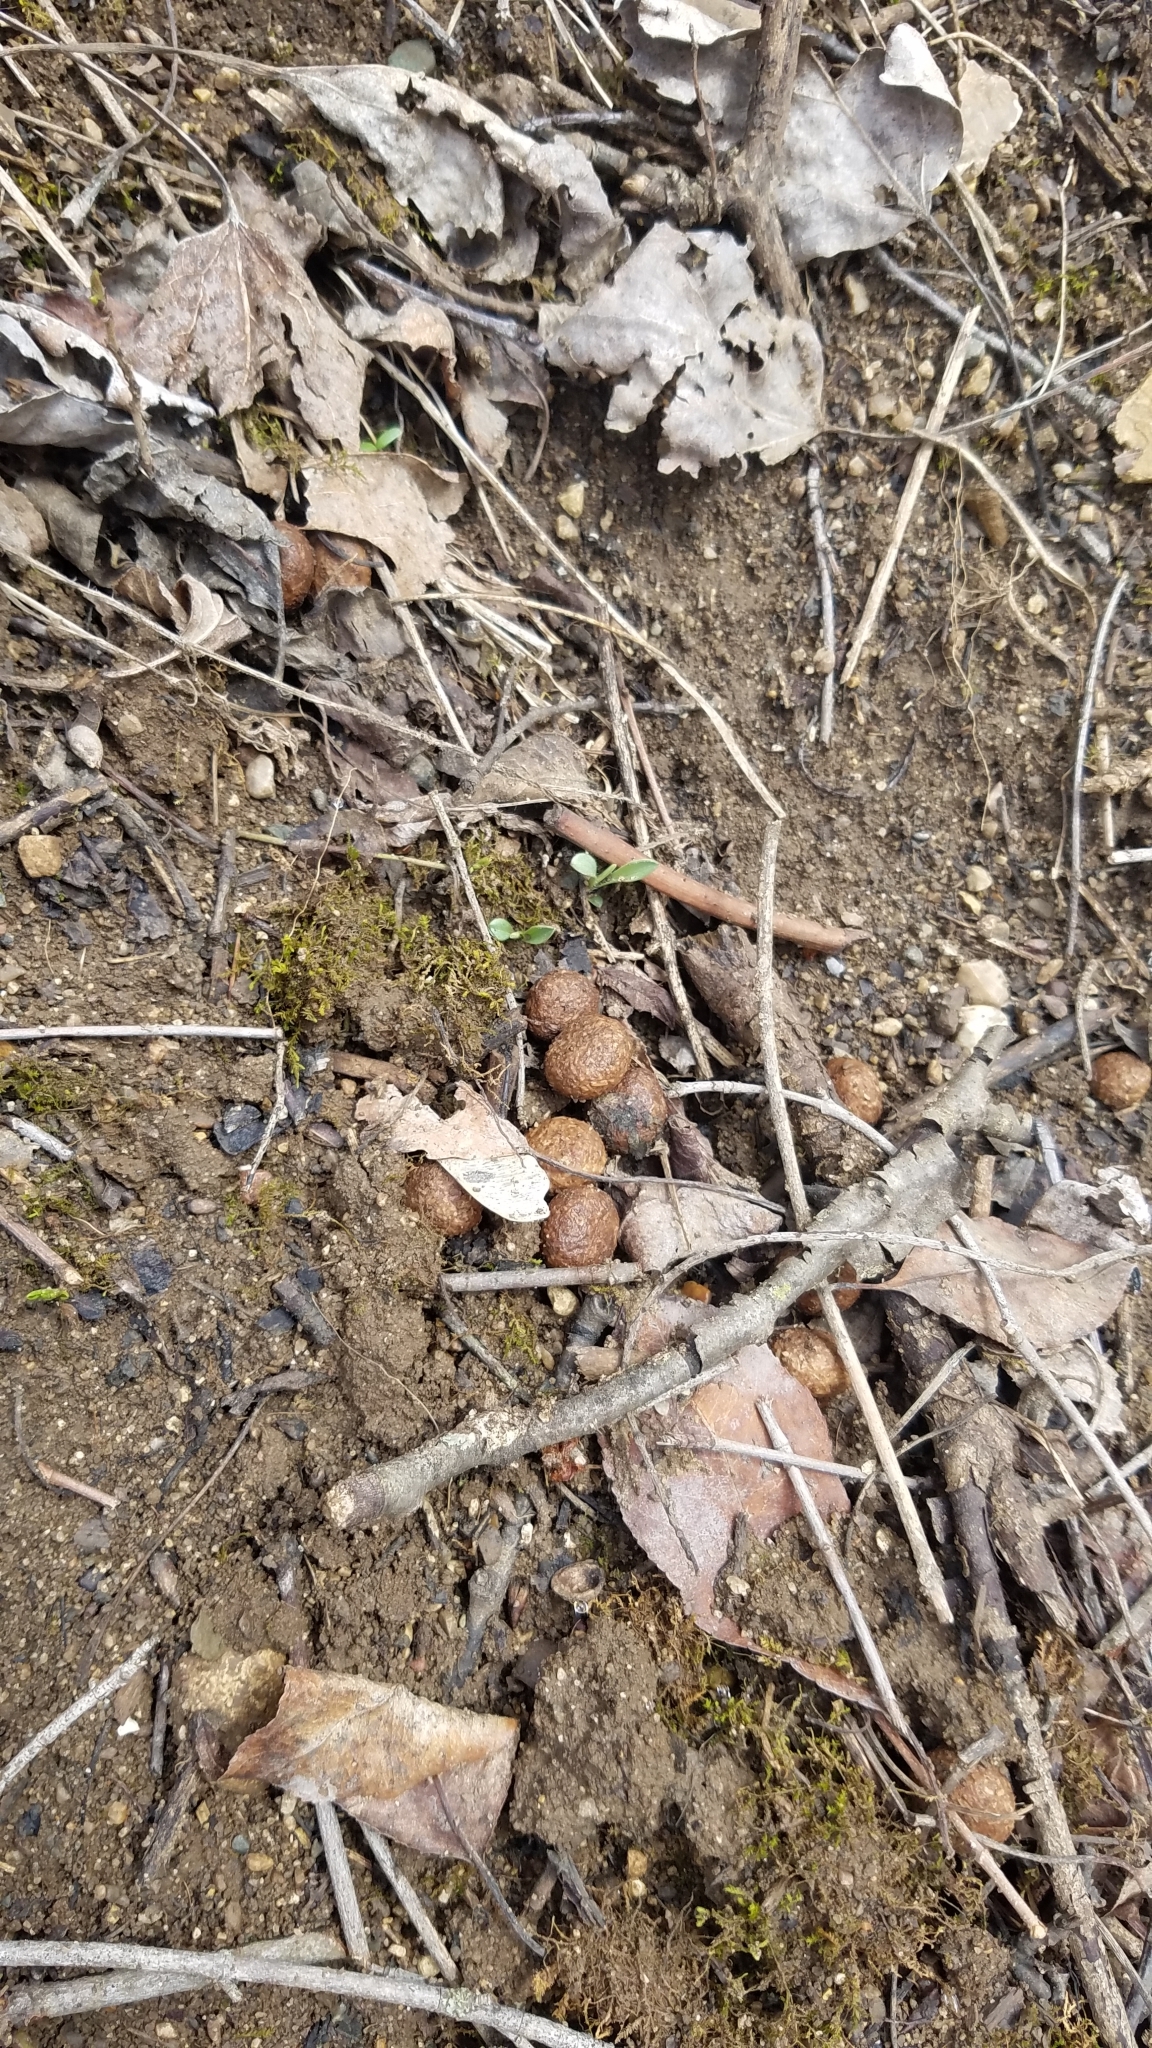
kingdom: Animalia
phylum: Chordata
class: Mammalia
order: Lagomorpha
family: Leporidae
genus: Sylvilagus
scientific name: Sylvilagus floridanus
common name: Eastern cottontail
